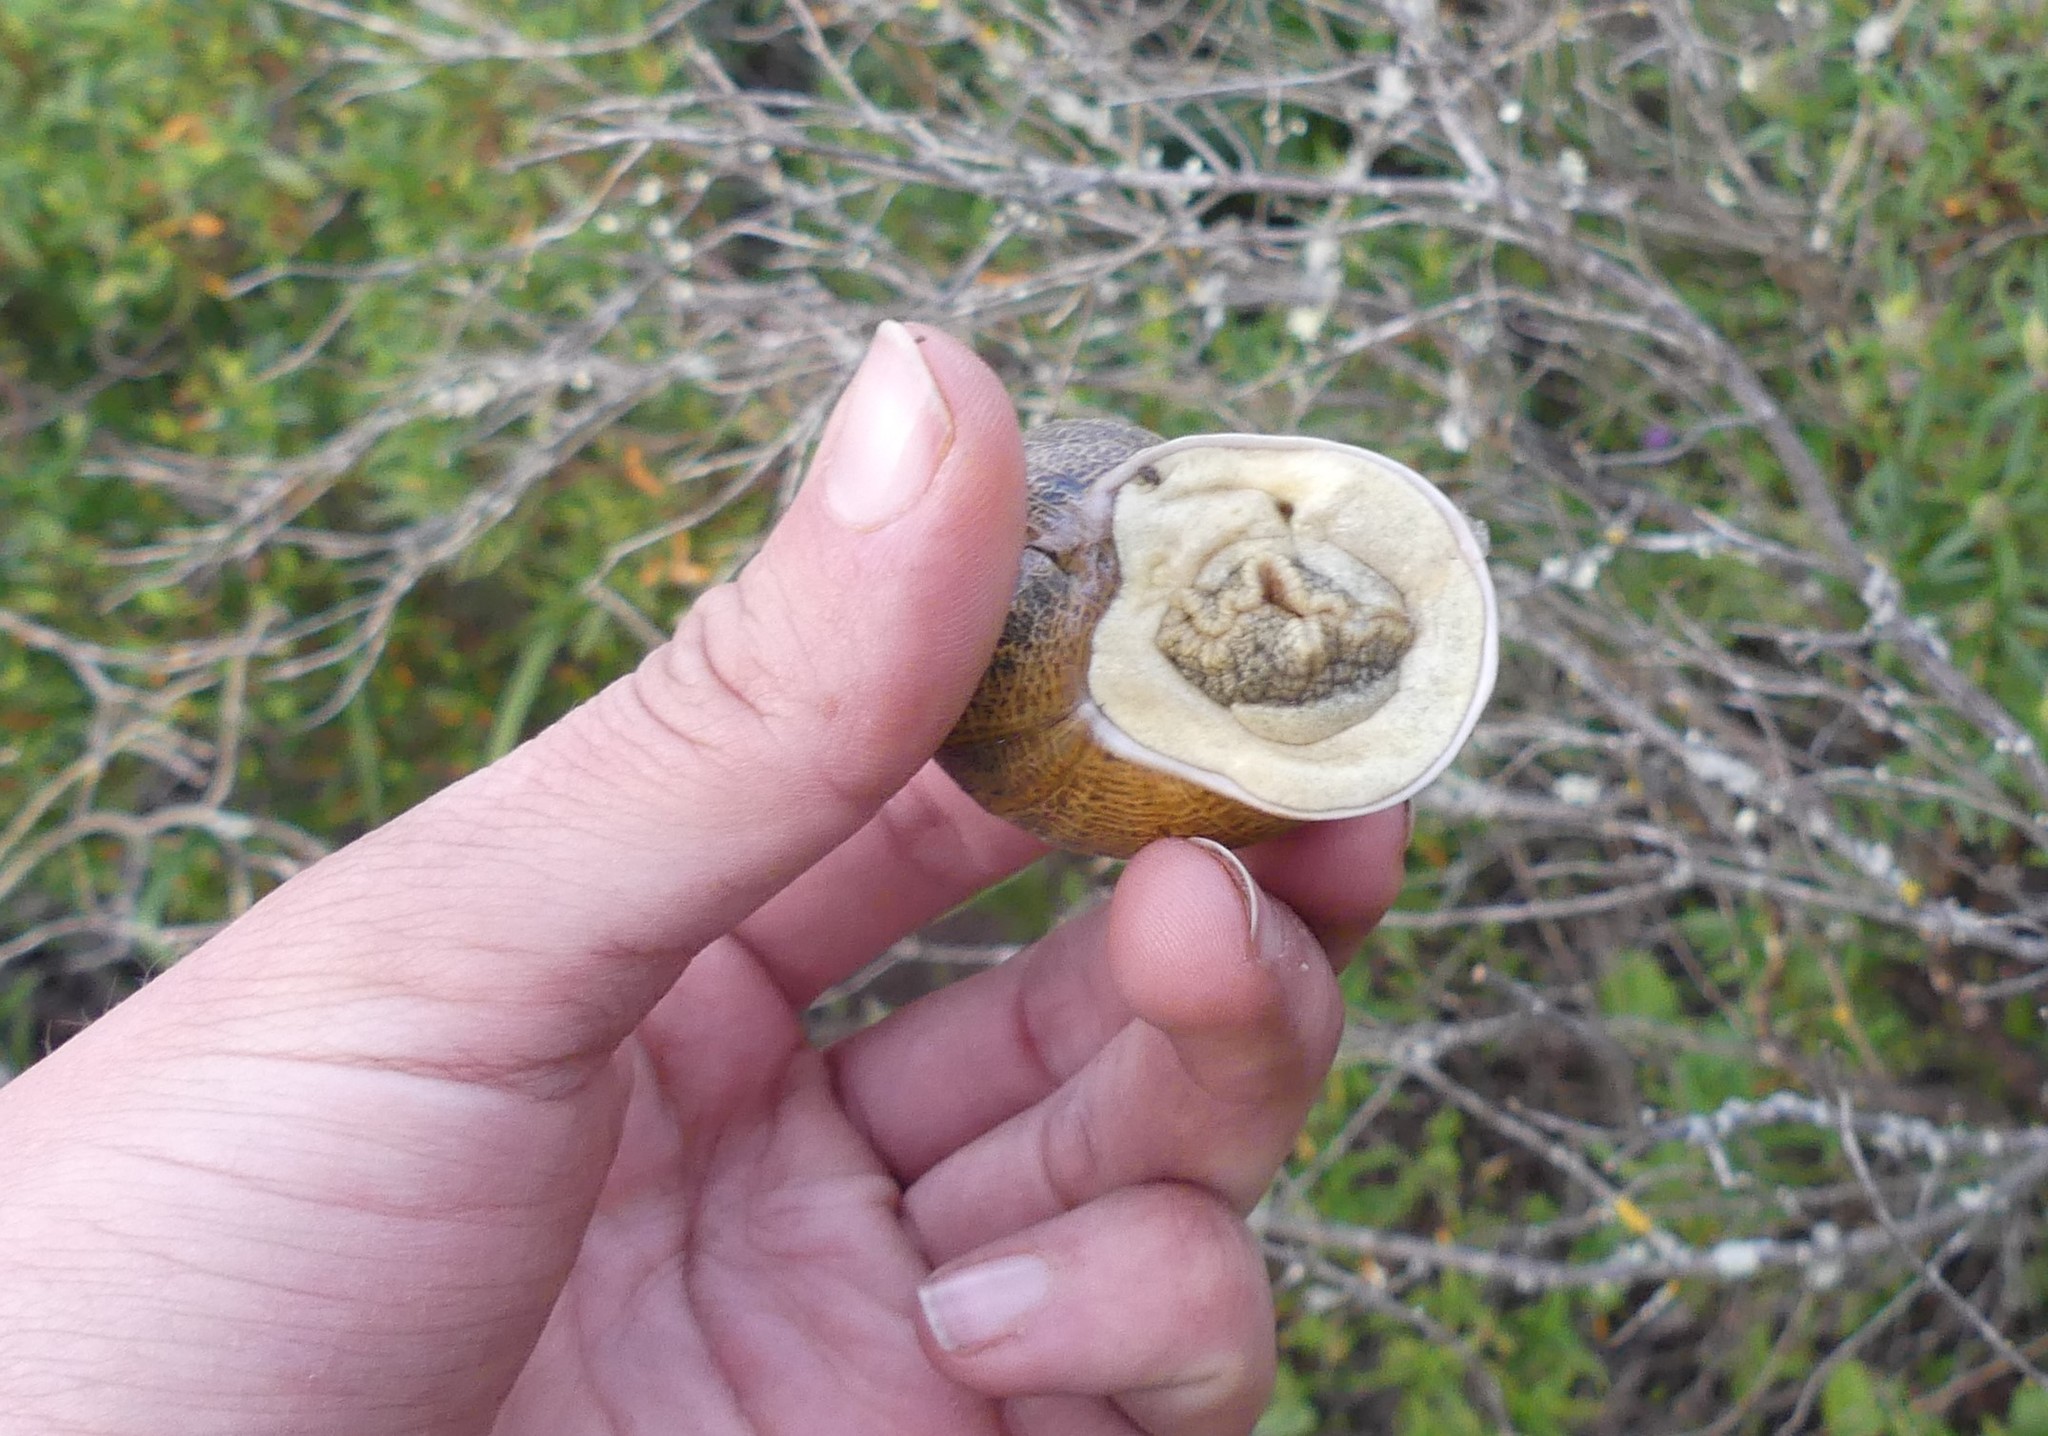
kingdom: Animalia
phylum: Mollusca
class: Gastropoda
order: Stylommatophora
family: Helicidae
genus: Cornu
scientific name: Cornu aspersum
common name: Brown garden snail
